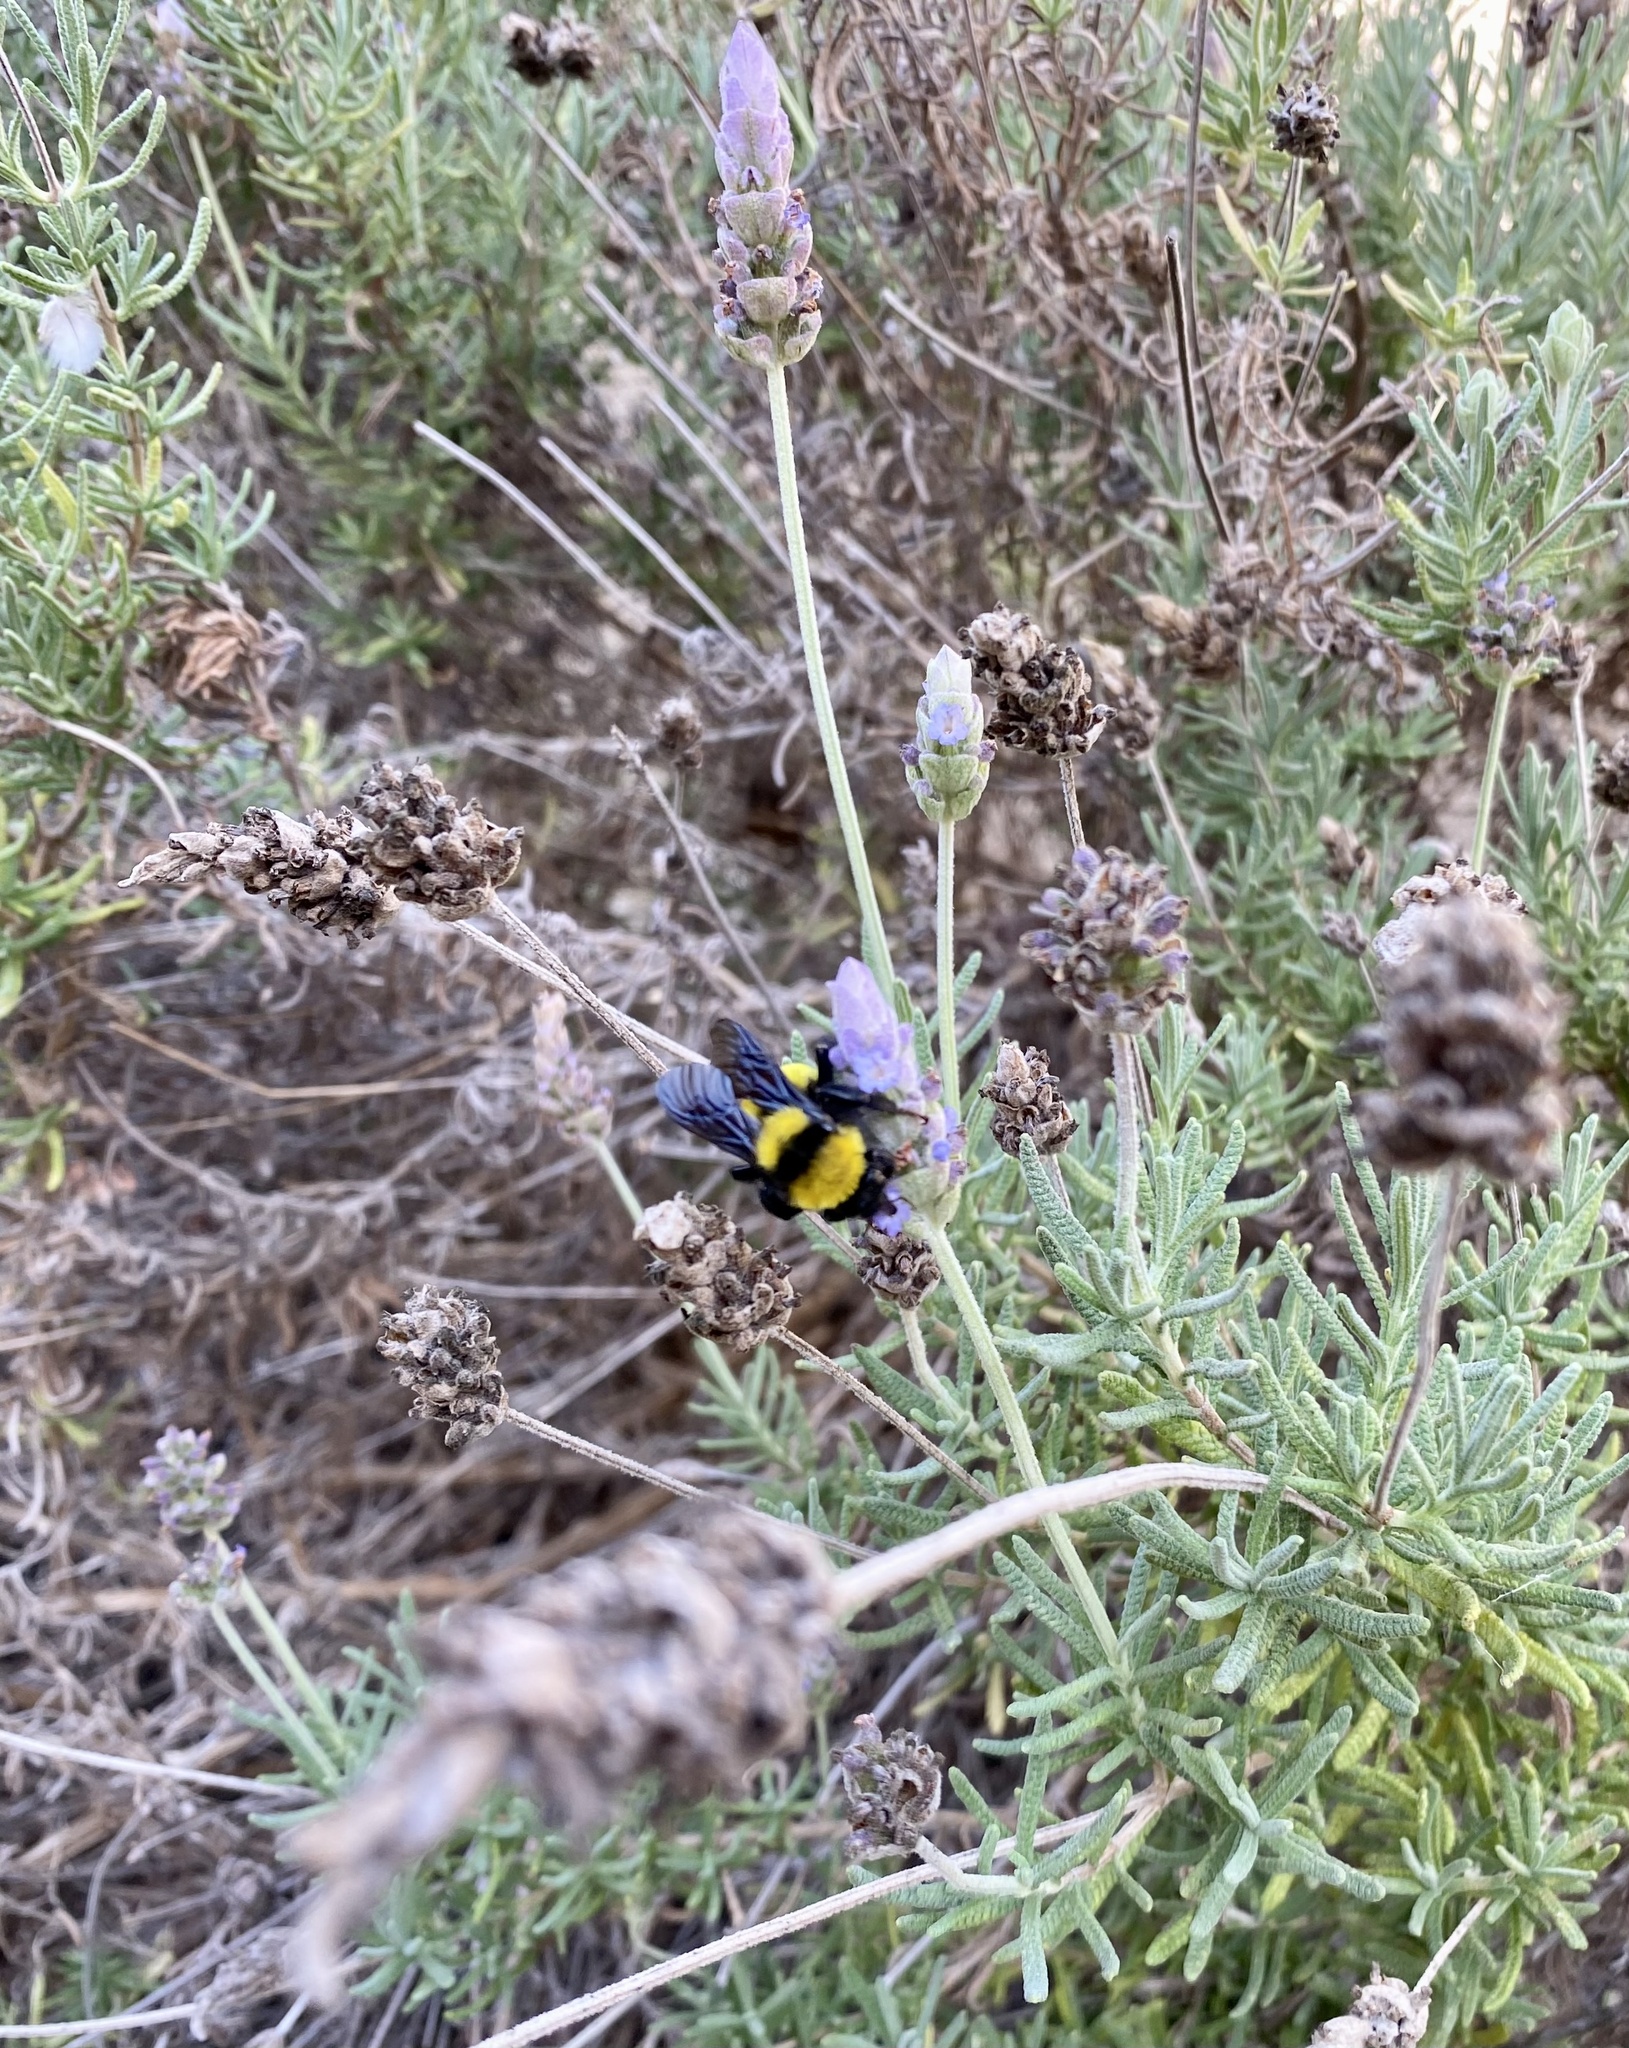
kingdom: Animalia
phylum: Arthropoda
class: Insecta
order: Hymenoptera
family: Apidae
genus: Bombus
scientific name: Bombus sonorus
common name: Sonoran bumble bee
